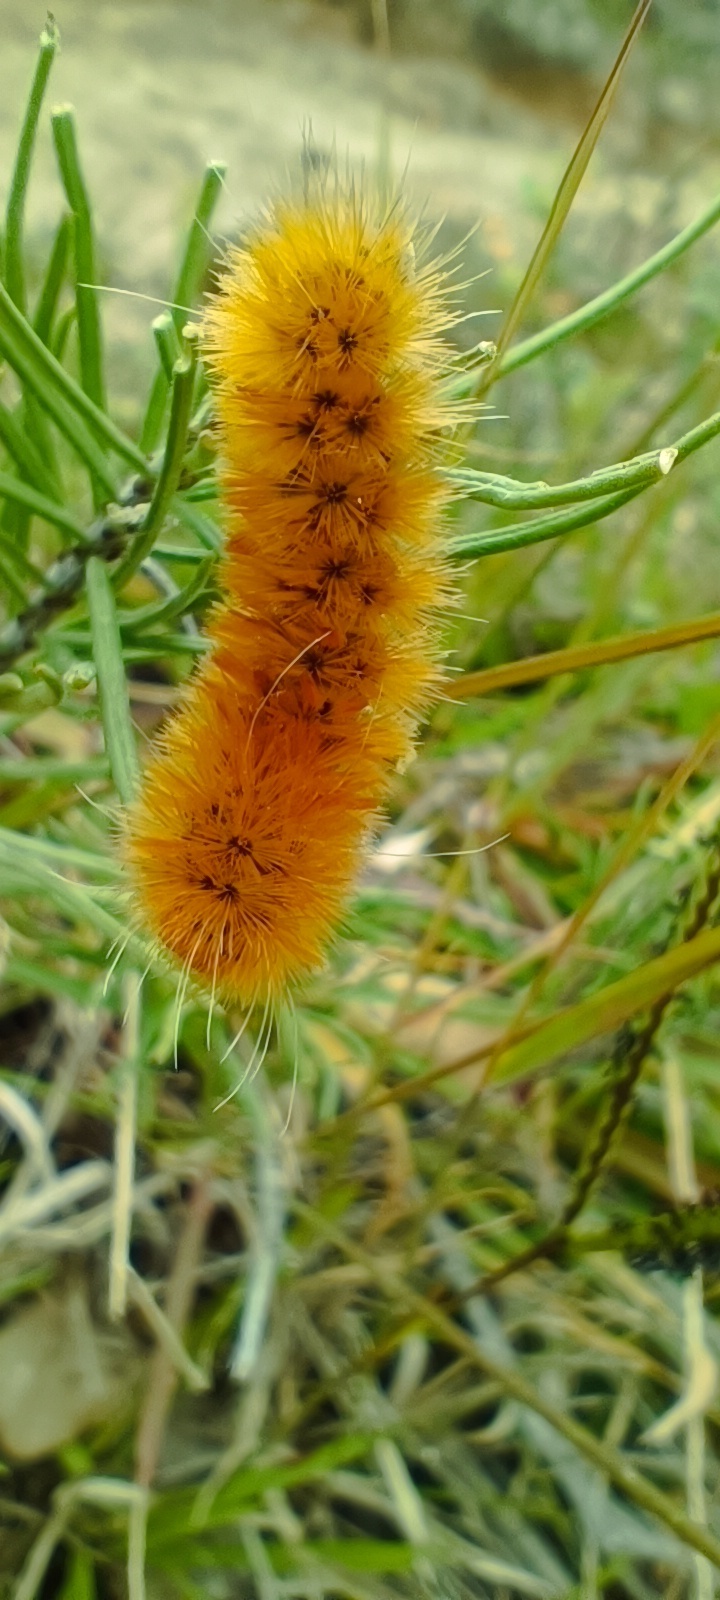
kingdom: Animalia
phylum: Arthropoda
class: Insecta
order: Lepidoptera
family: Erebidae
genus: Lerina
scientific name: Lerina incarnata
